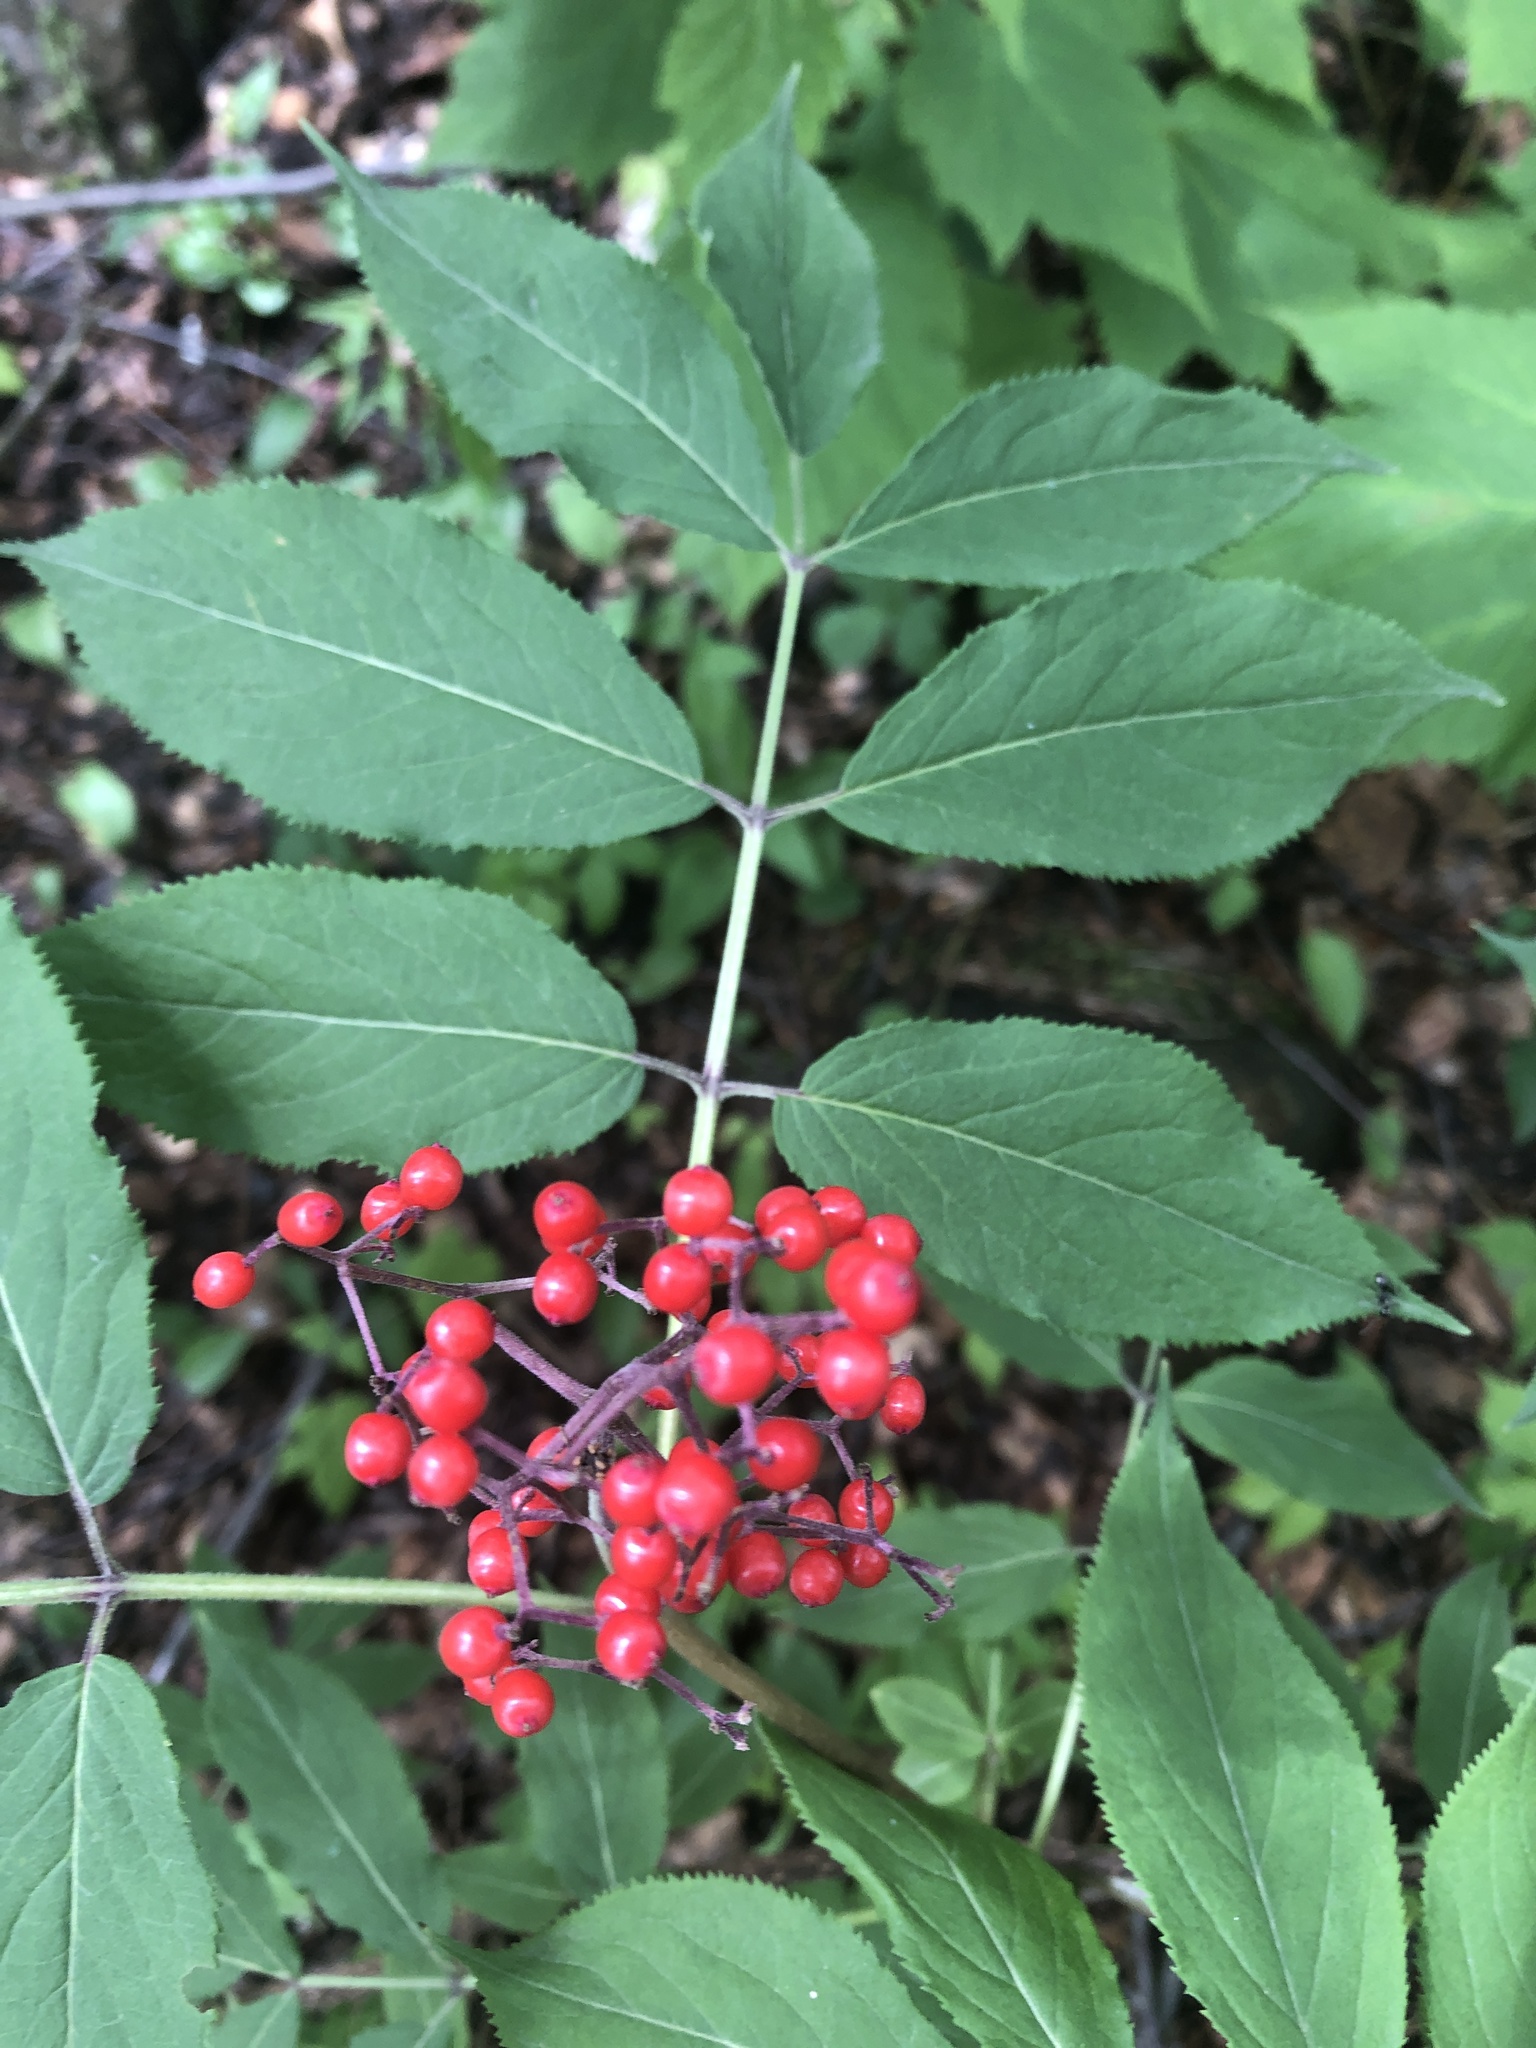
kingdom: Plantae
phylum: Tracheophyta
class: Magnoliopsida
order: Dipsacales
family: Viburnaceae
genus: Sambucus
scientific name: Sambucus racemosa
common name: Red-berried elder
